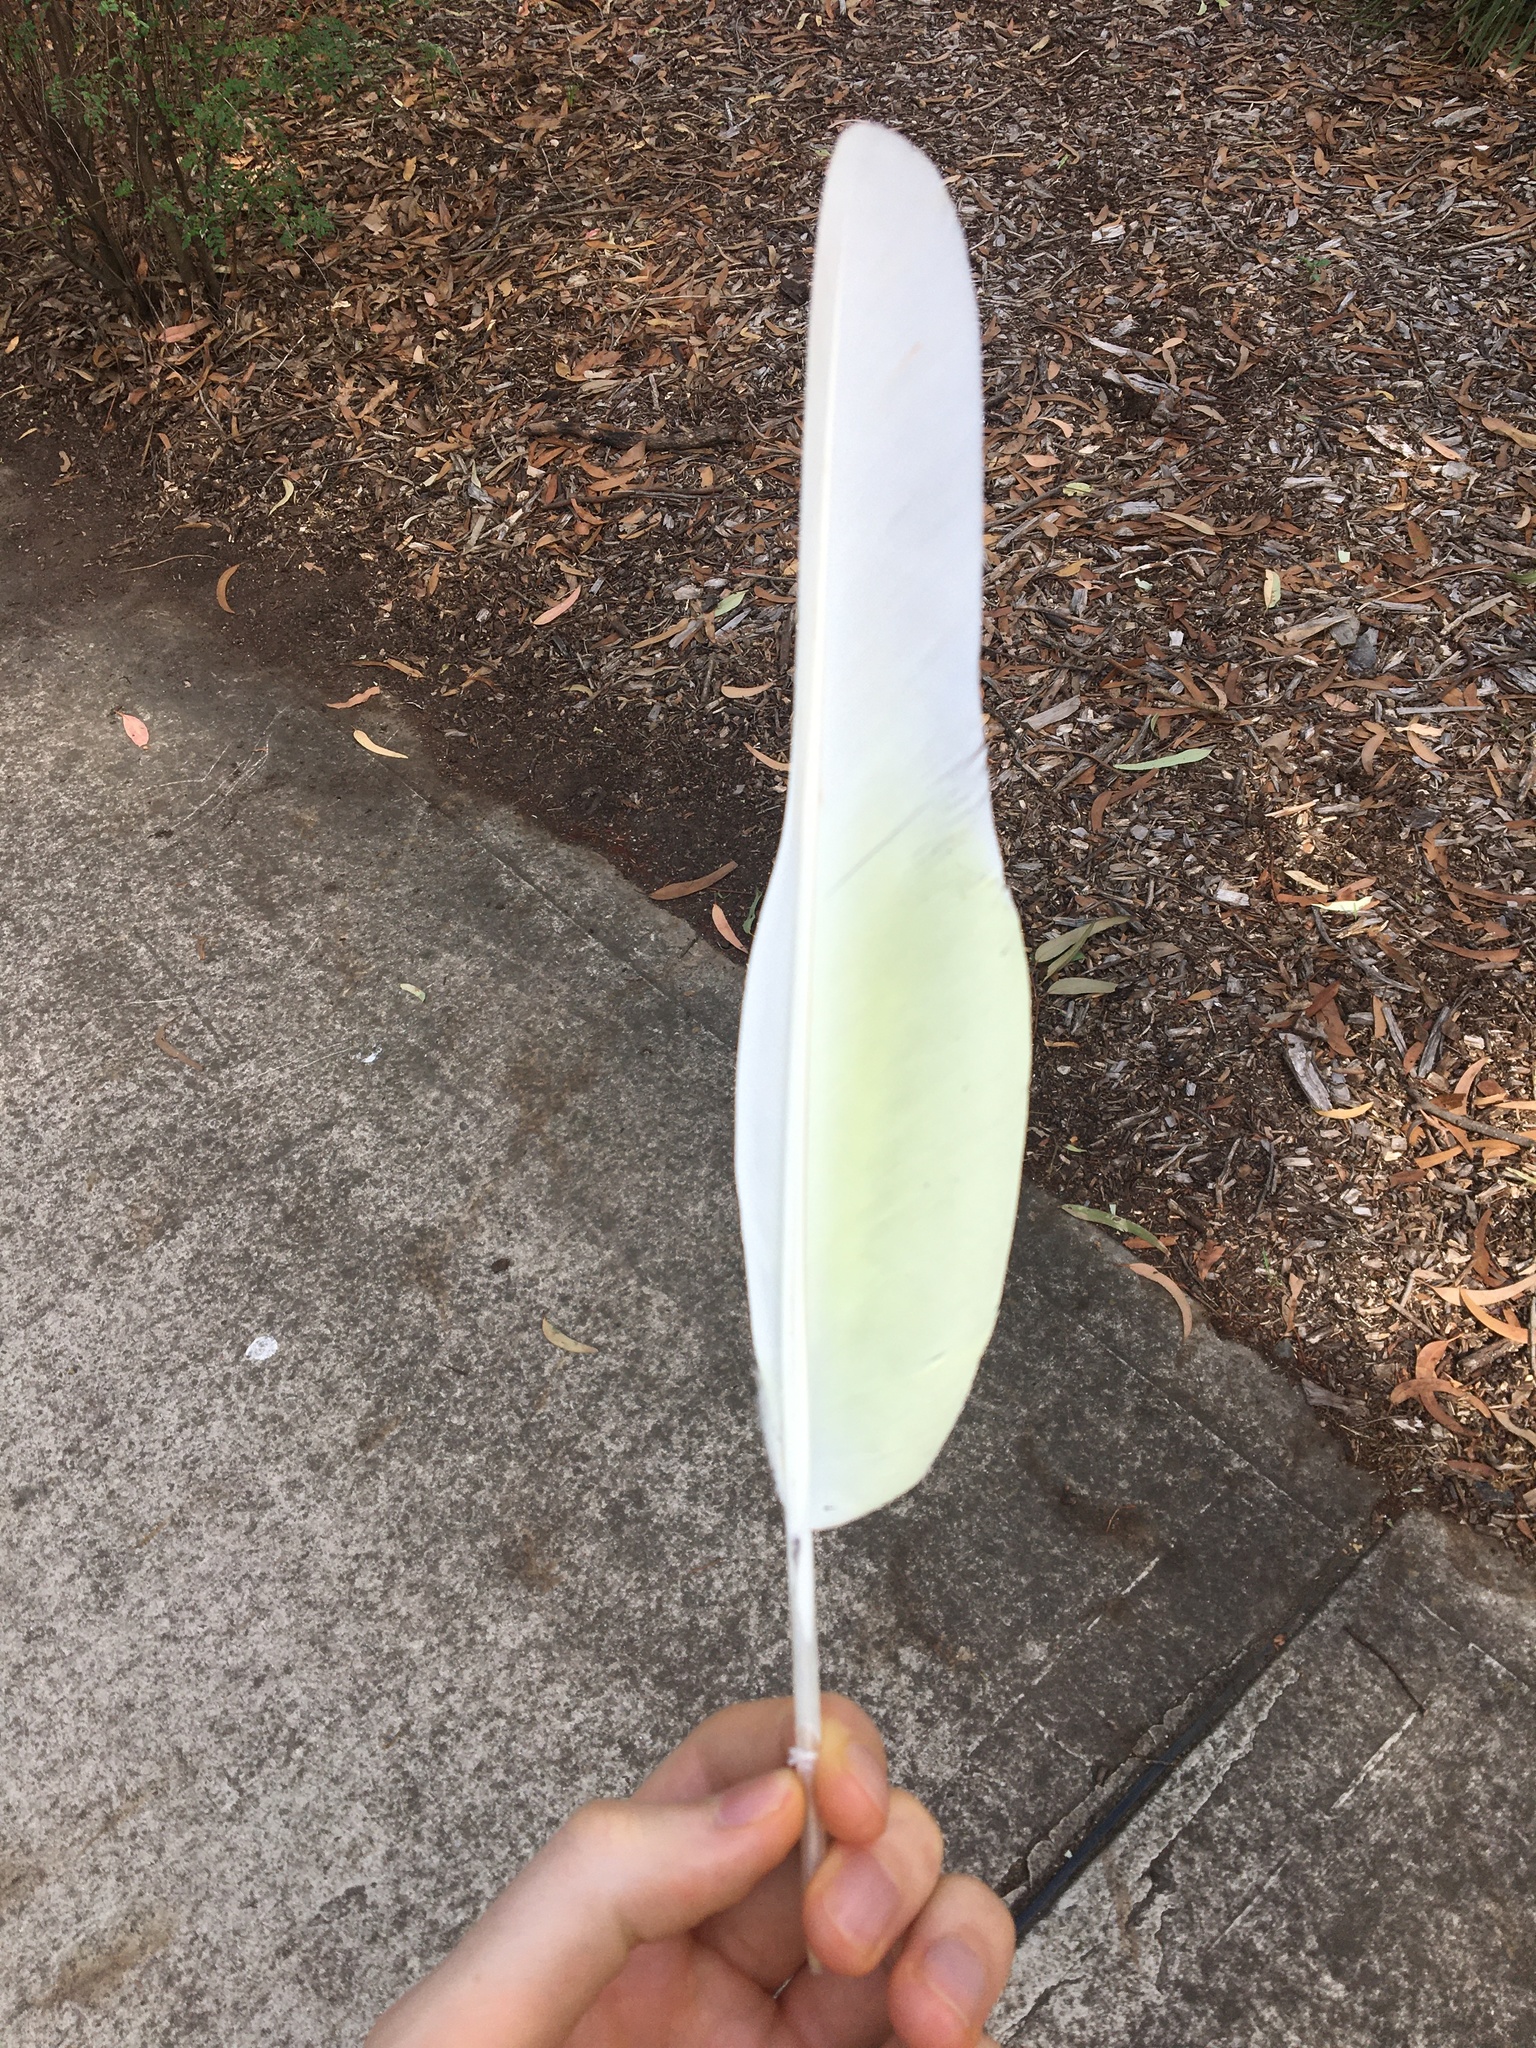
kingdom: Animalia
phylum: Chordata
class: Aves
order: Psittaciformes
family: Psittacidae
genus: Cacatua
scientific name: Cacatua galerita
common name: Sulphur-crested cockatoo
